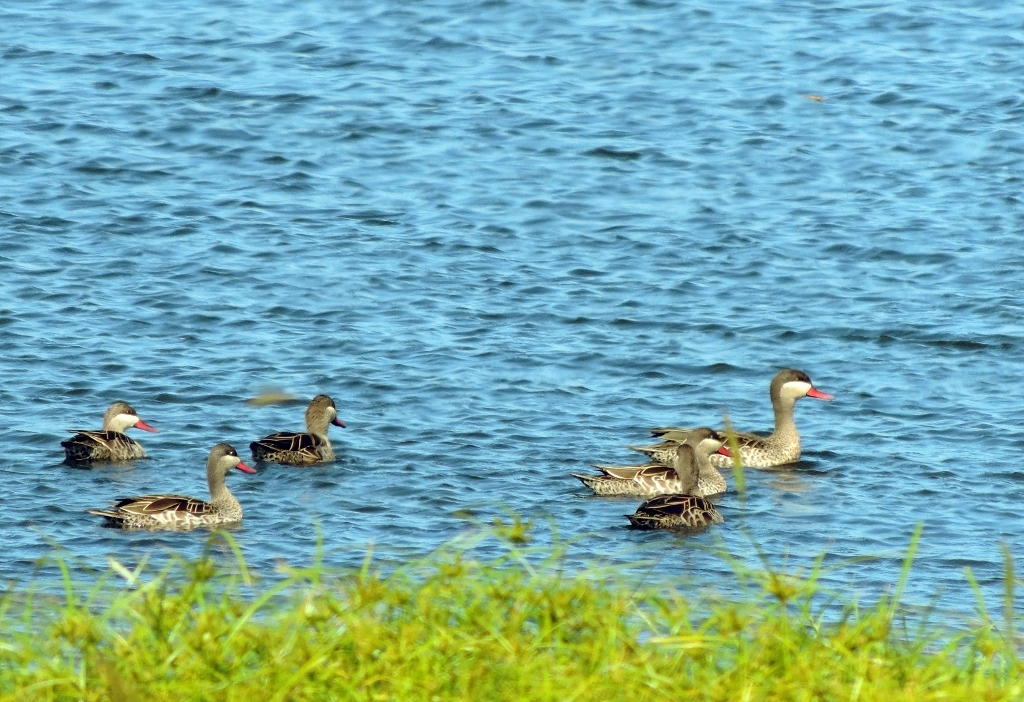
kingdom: Animalia
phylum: Chordata
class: Aves
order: Anseriformes
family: Anatidae
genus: Anas
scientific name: Anas erythrorhyncha
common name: Red-billed teal
